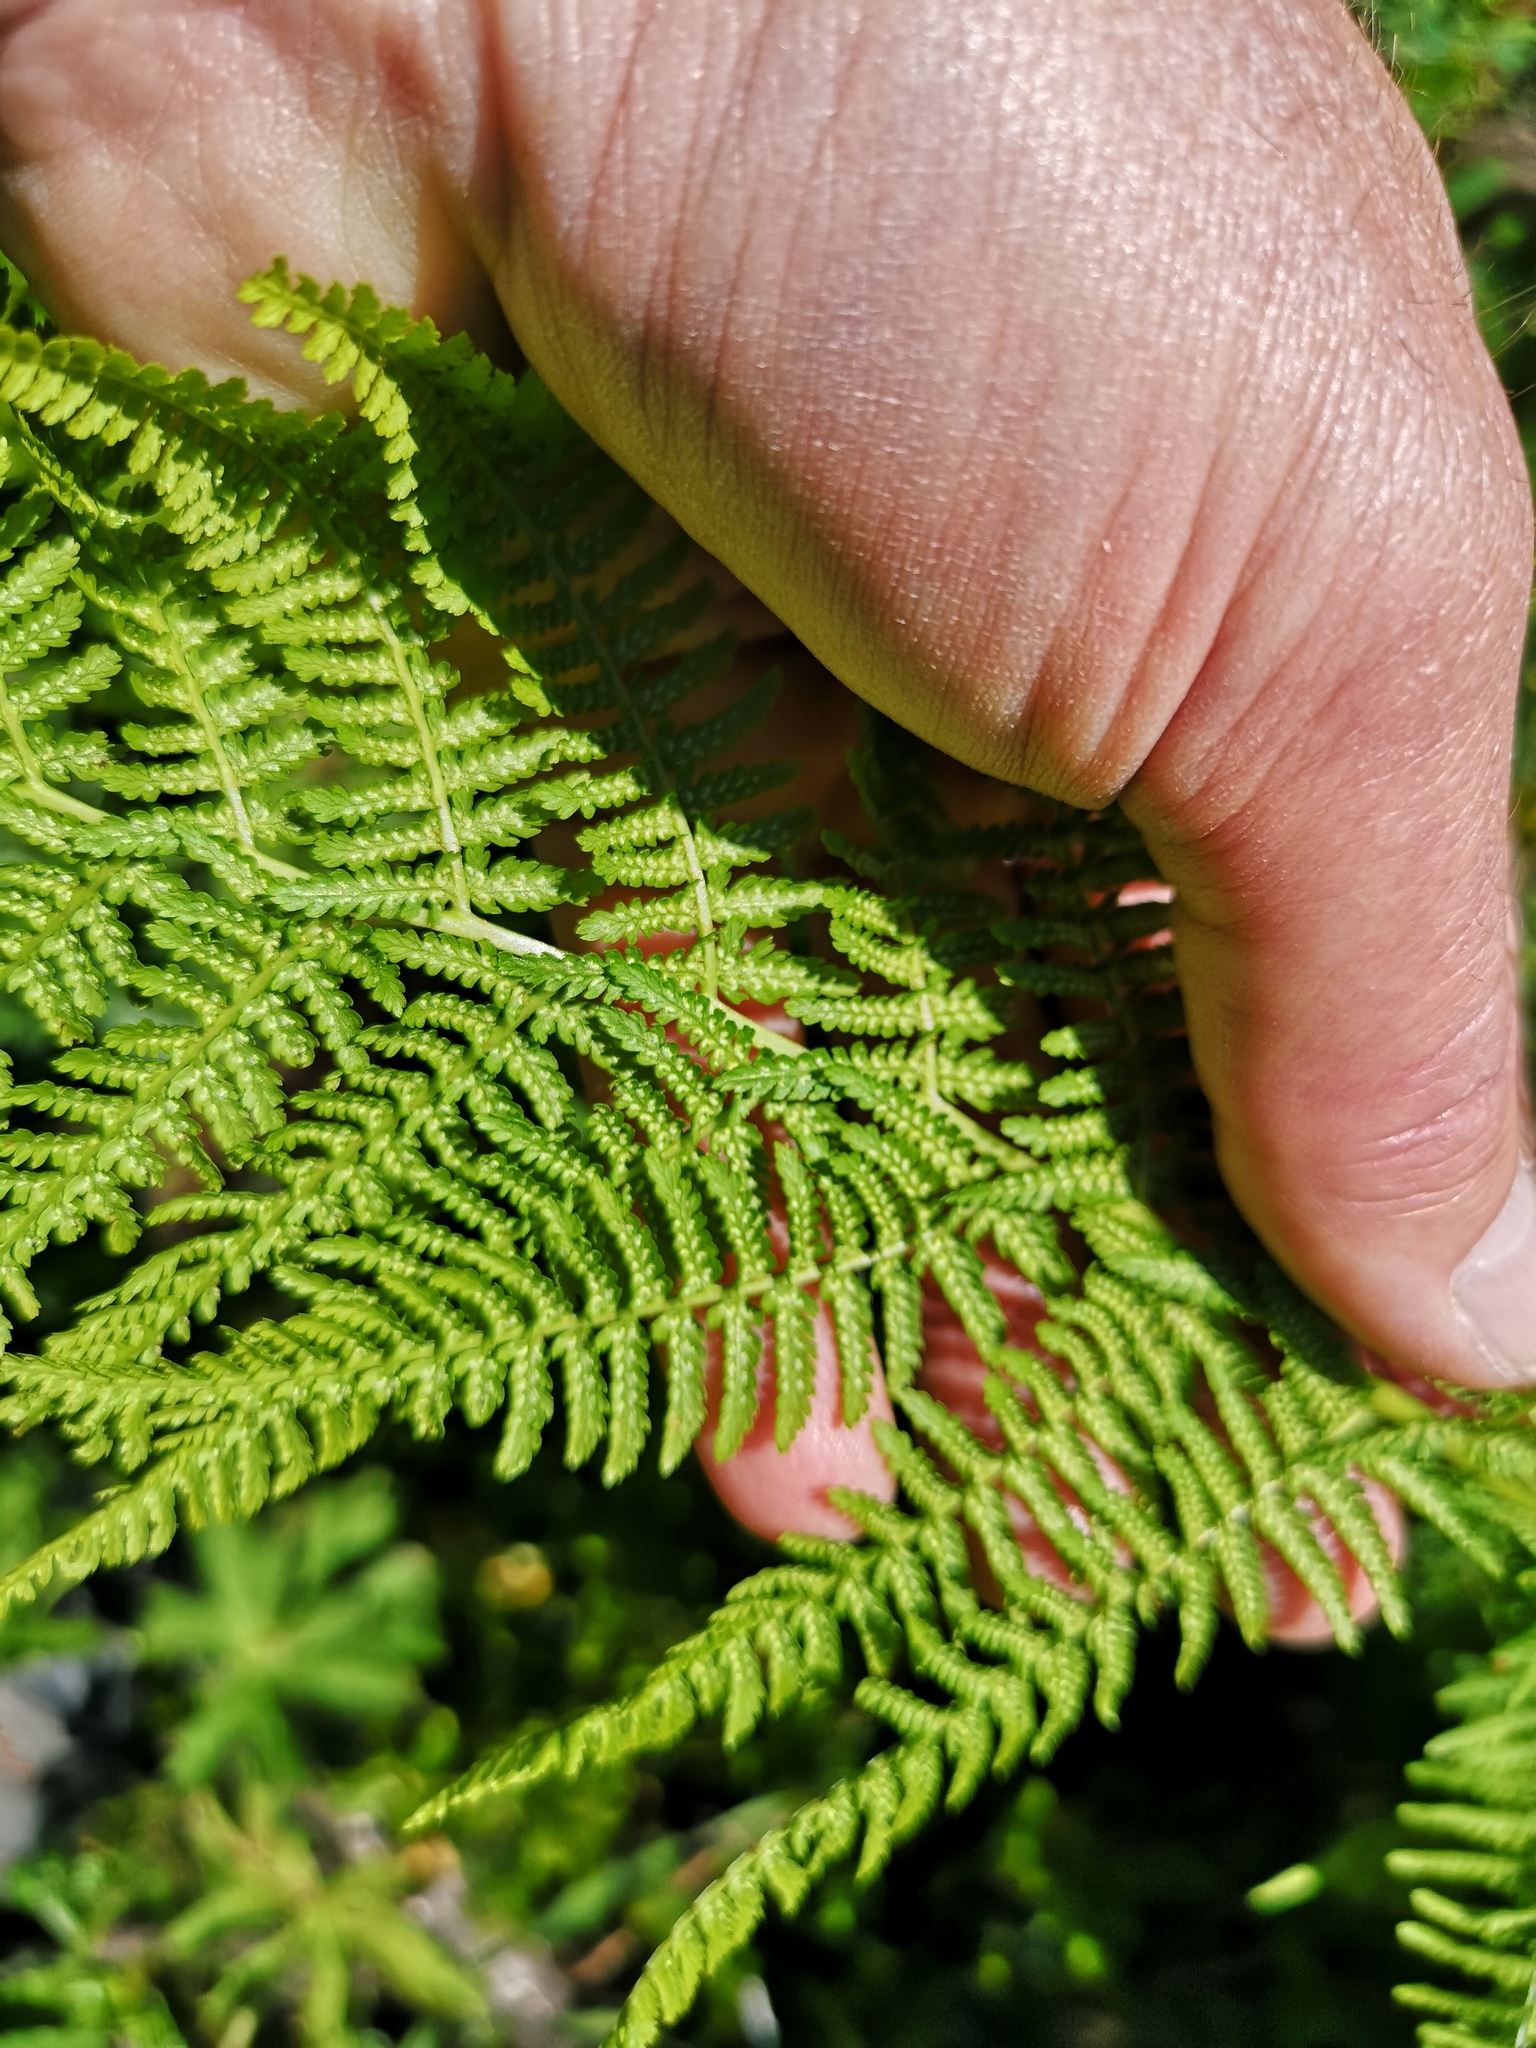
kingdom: Plantae
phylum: Tracheophyta
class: Polypodiopsida
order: Polypodiales
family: Athyriaceae
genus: Athyrium
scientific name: Athyrium filix-femina
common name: Lady fern
